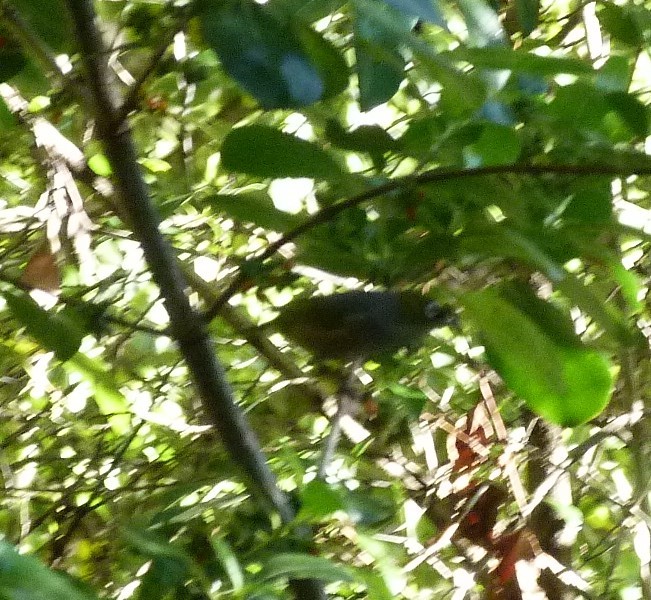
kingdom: Animalia
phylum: Chordata
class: Aves
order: Passeriformes
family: Zosteropidae
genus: Zosterops
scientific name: Zosterops lateralis
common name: Silvereye
